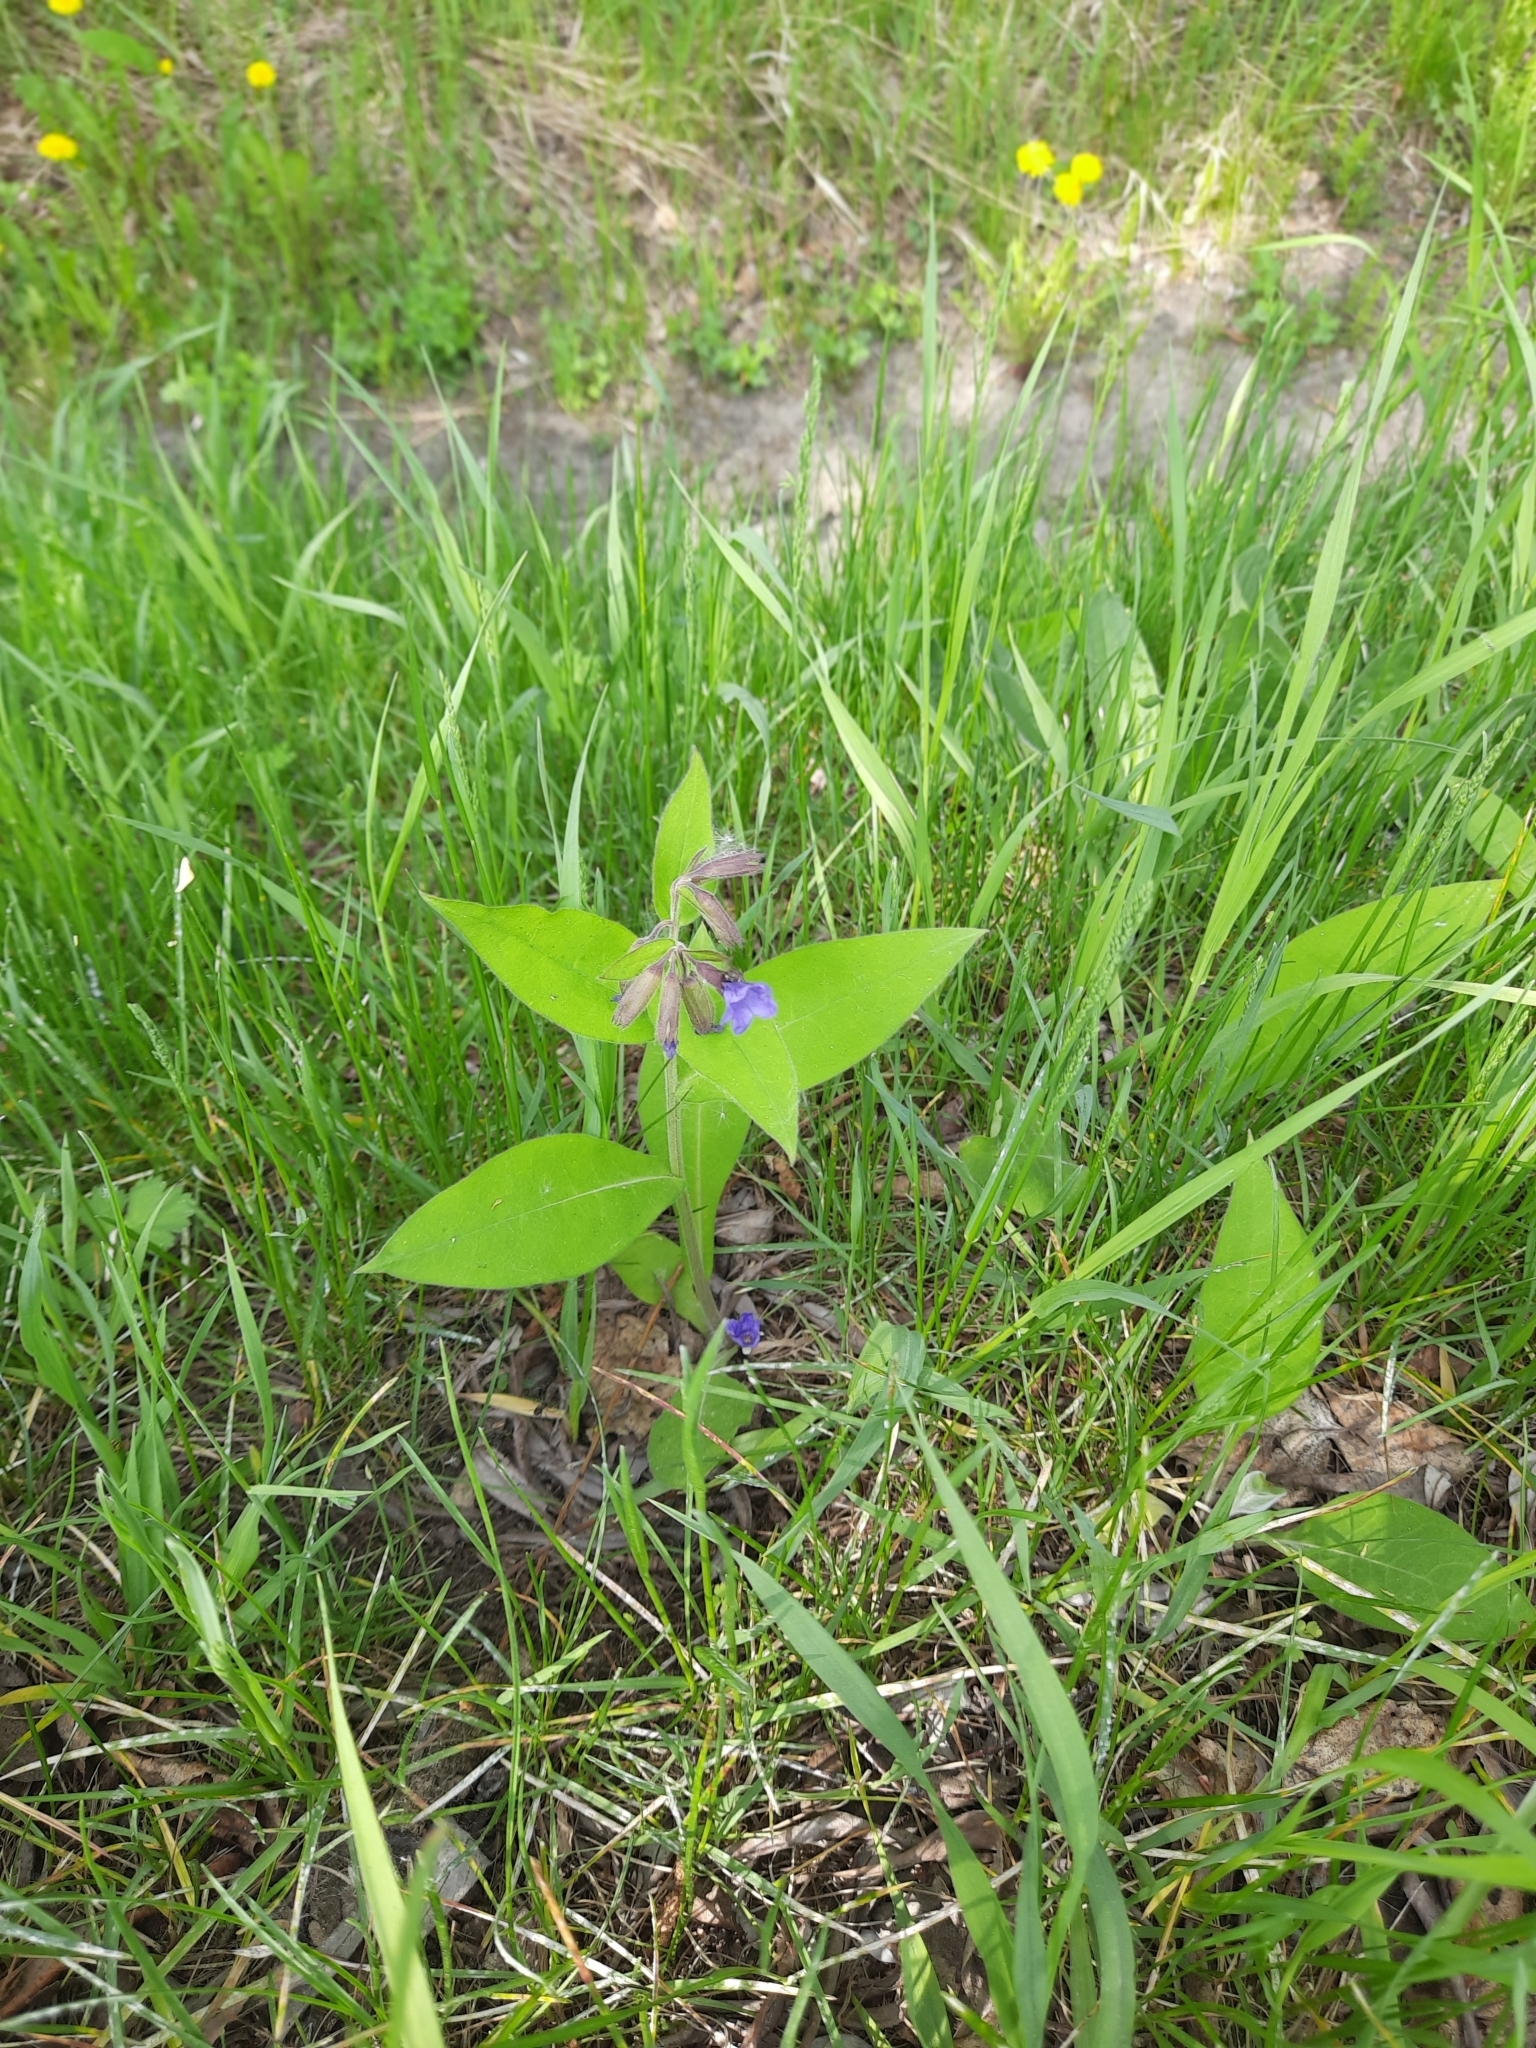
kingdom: Plantae
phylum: Tracheophyta
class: Magnoliopsida
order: Boraginales
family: Boraginaceae
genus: Pulmonaria
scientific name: Pulmonaria mollis
